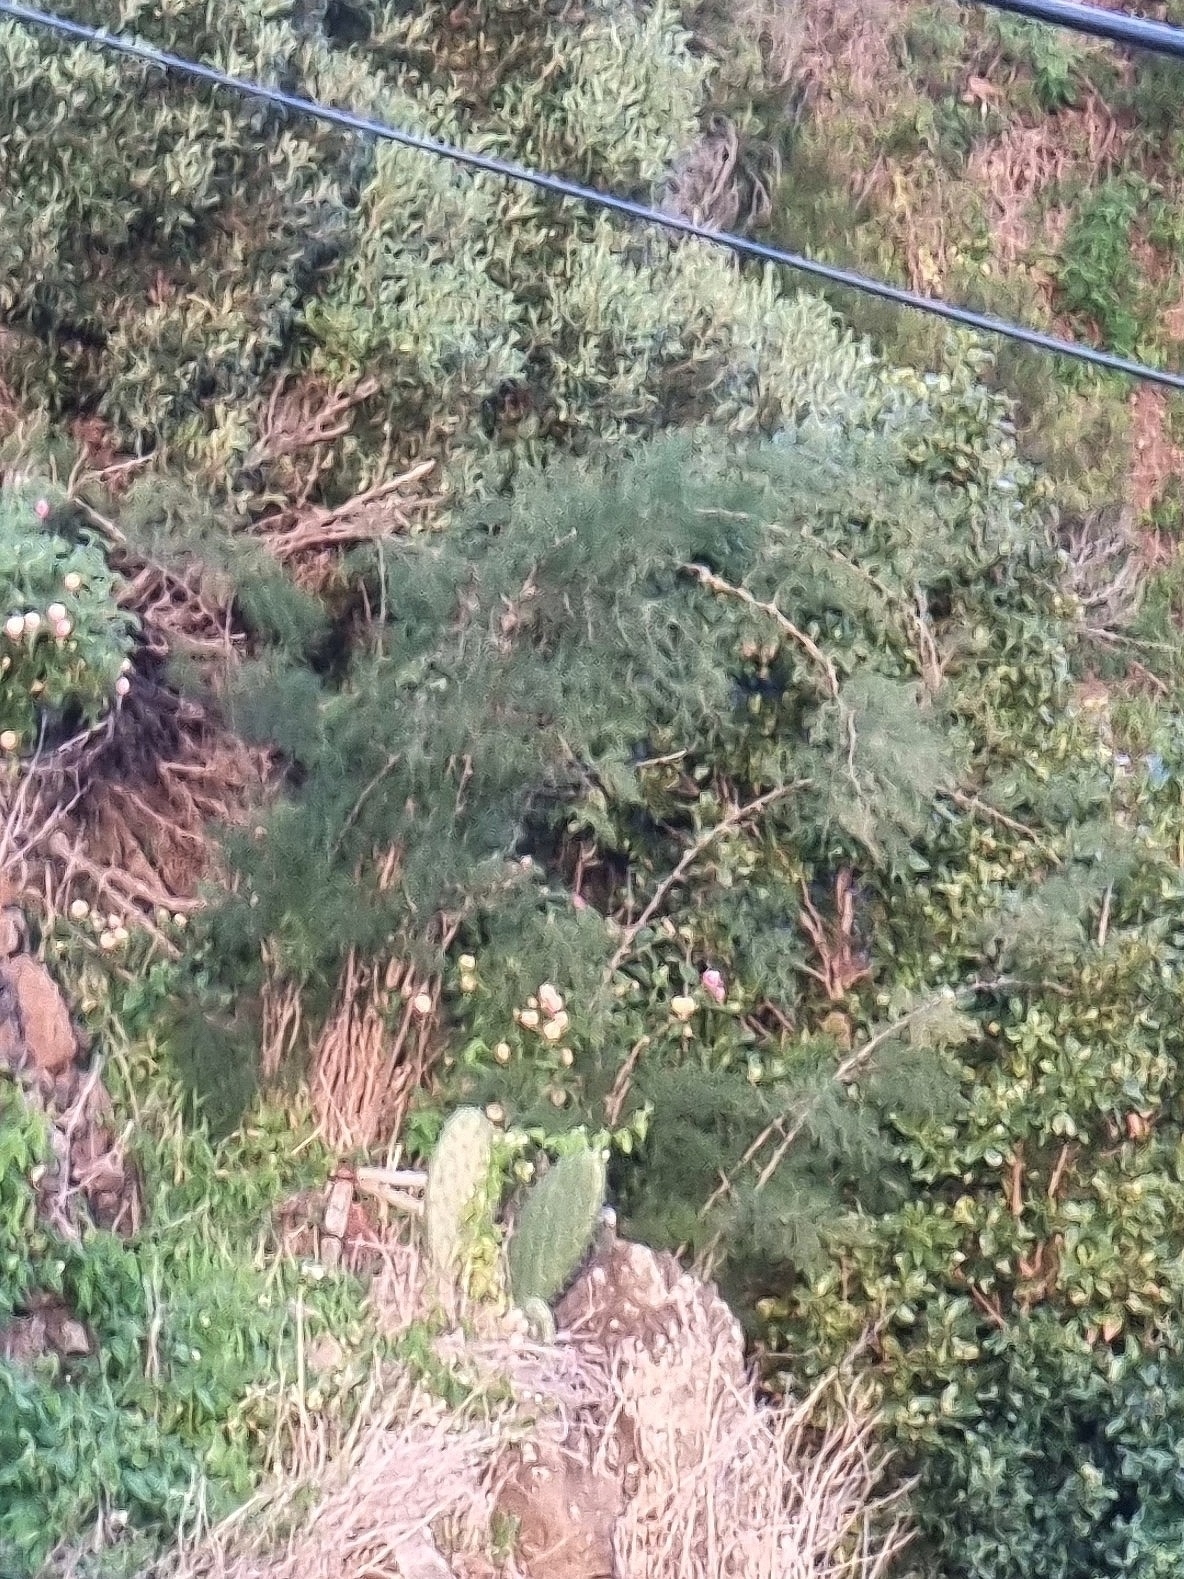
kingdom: Plantae
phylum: Tracheophyta
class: Liliopsida
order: Asparagales
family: Asparagaceae
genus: Asparagus
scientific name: Asparagus umbellatus
